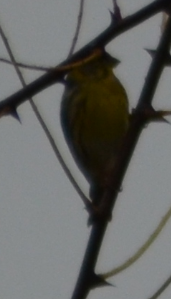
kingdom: Animalia
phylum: Chordata
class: Aves
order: Passeriformes
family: Fringillidae
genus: Serinus
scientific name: Serinus serinus
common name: European serin
